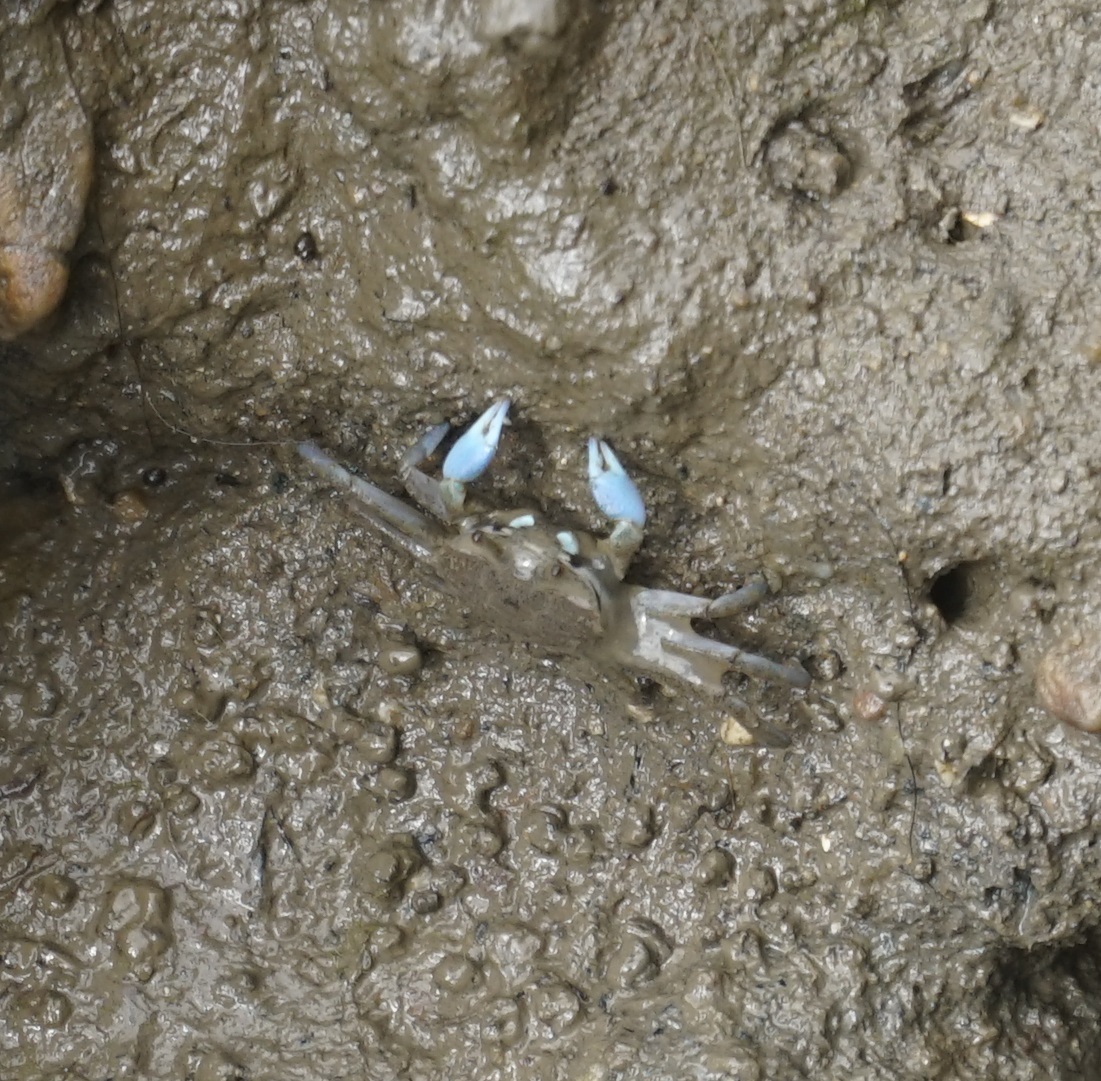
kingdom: Animalia
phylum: Arthropoda
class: Malacostraca
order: Decapoda
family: Macrophthalmidae
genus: Macrophthalmus
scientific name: Macrophthalmus pacificus
